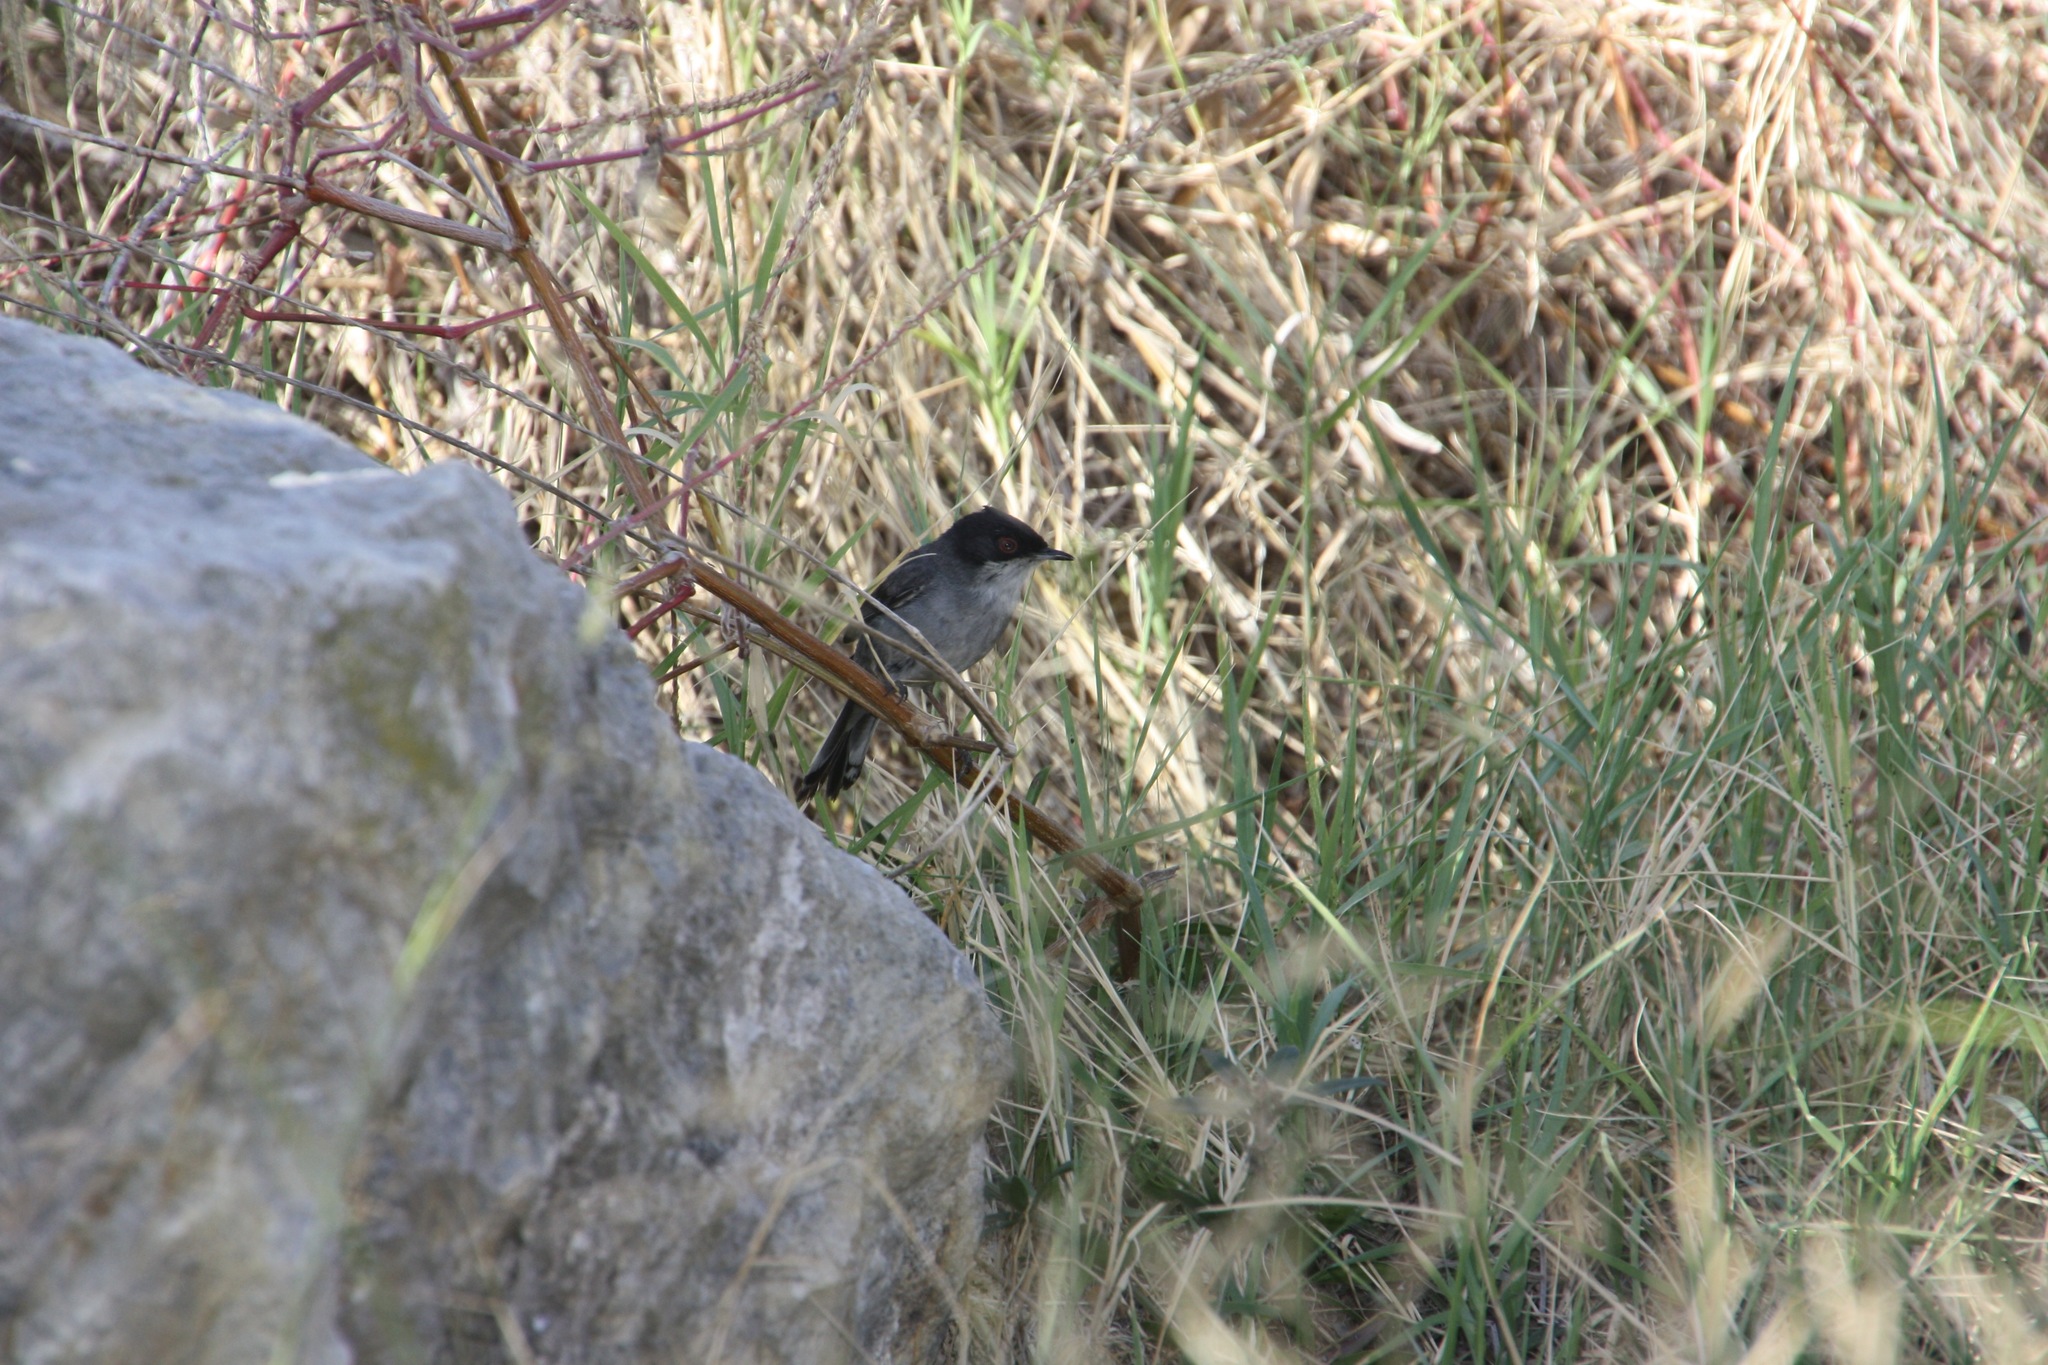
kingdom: Animalia
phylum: Chordata
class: Aves
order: Passeriformes
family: Sylviidae
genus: Curruca
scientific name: Curruca melanocephala
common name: Sardinian warbler
